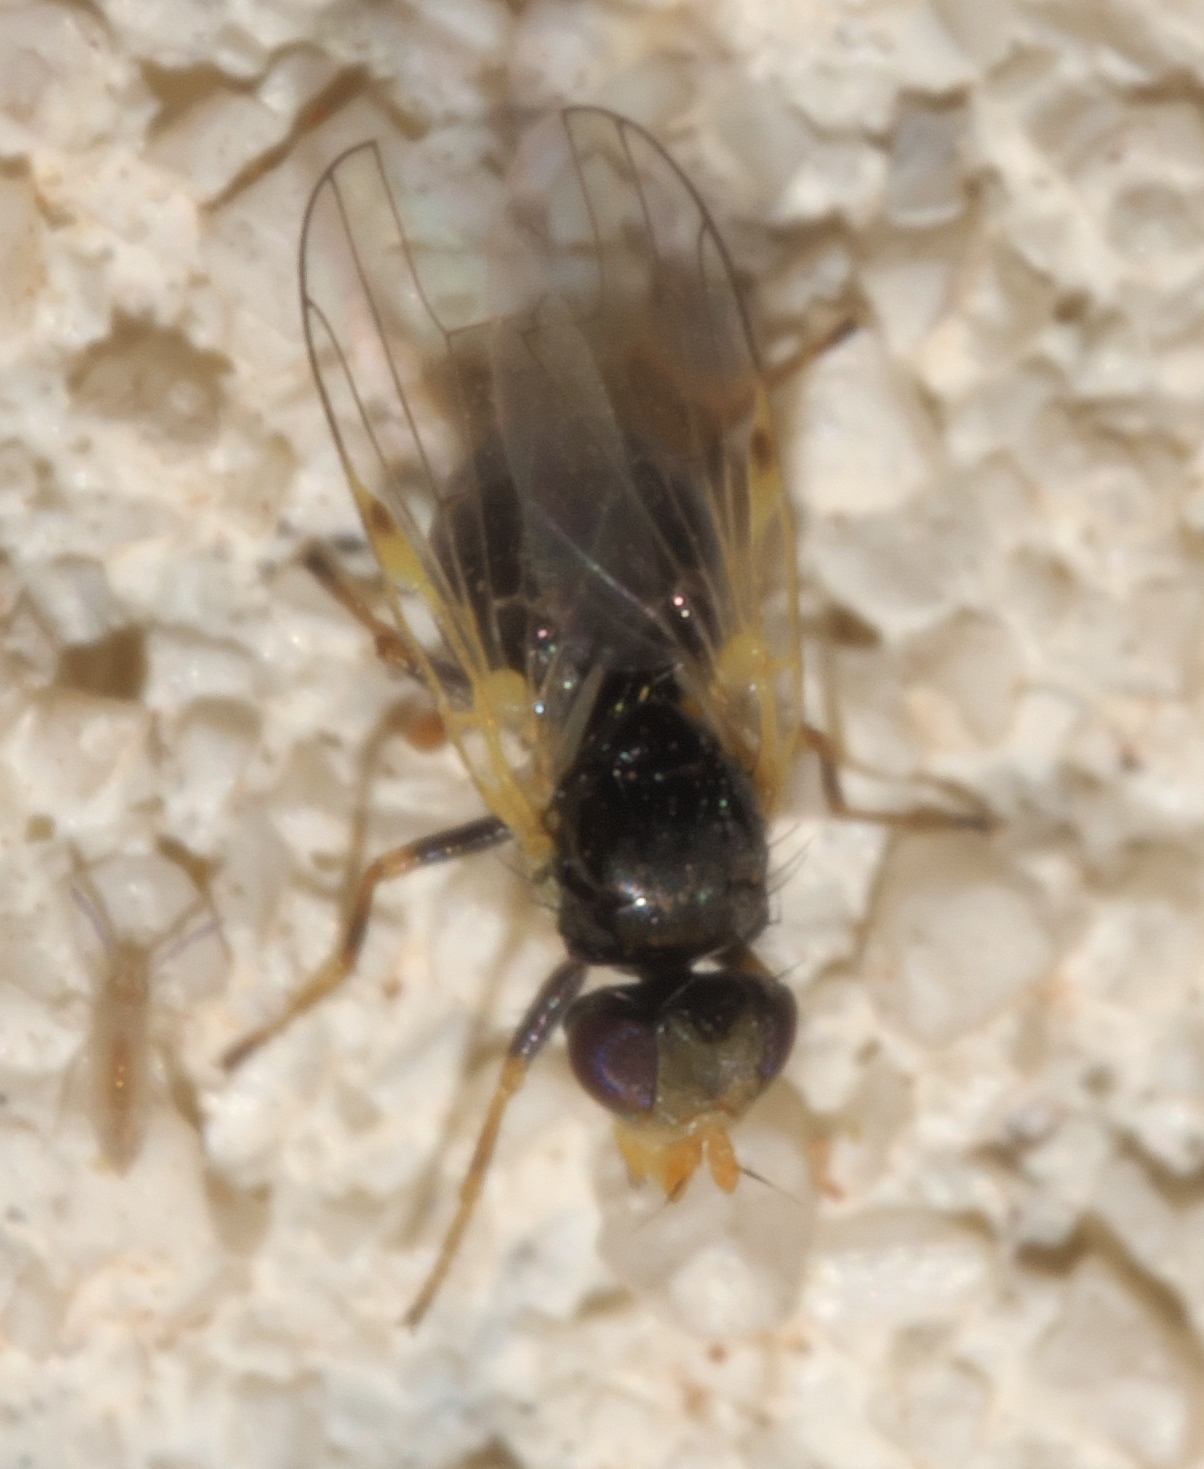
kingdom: Animalia
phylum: Arthropoda
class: Insecta
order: Diptera
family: Tephritidae
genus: Goedenia
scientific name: Goedenia
